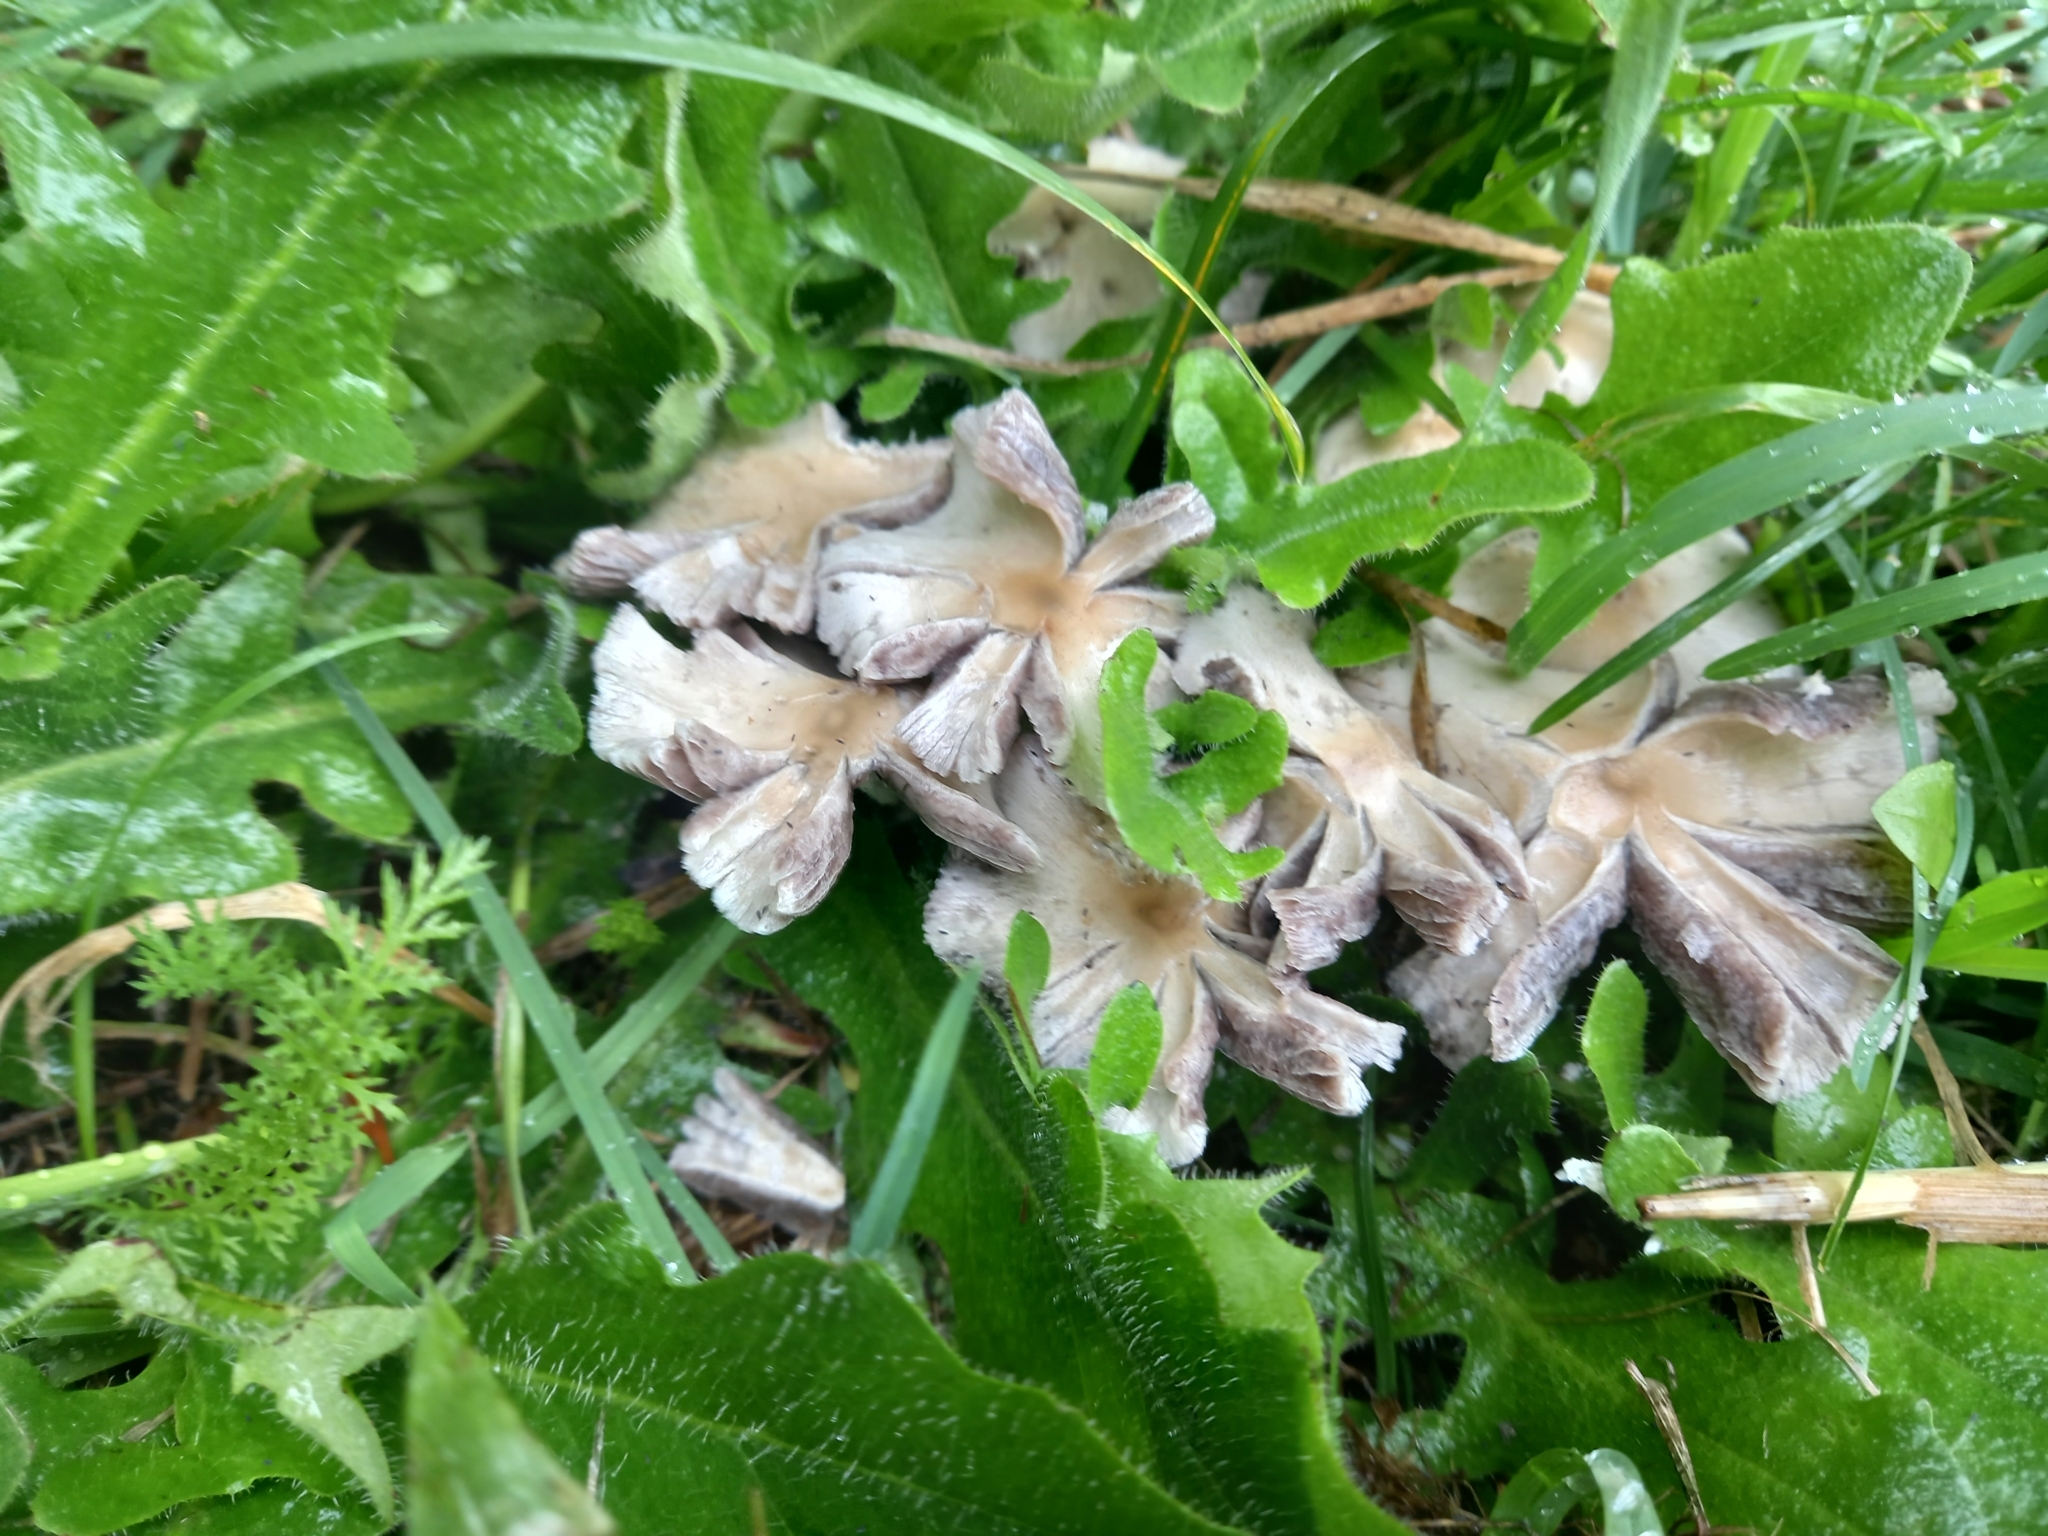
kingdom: Fungi
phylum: Basidiomycota
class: Agaricomycetes
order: Agaricales
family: Psathyrellaceae
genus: Candolleomyces
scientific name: Candolleomyces candolleanus
